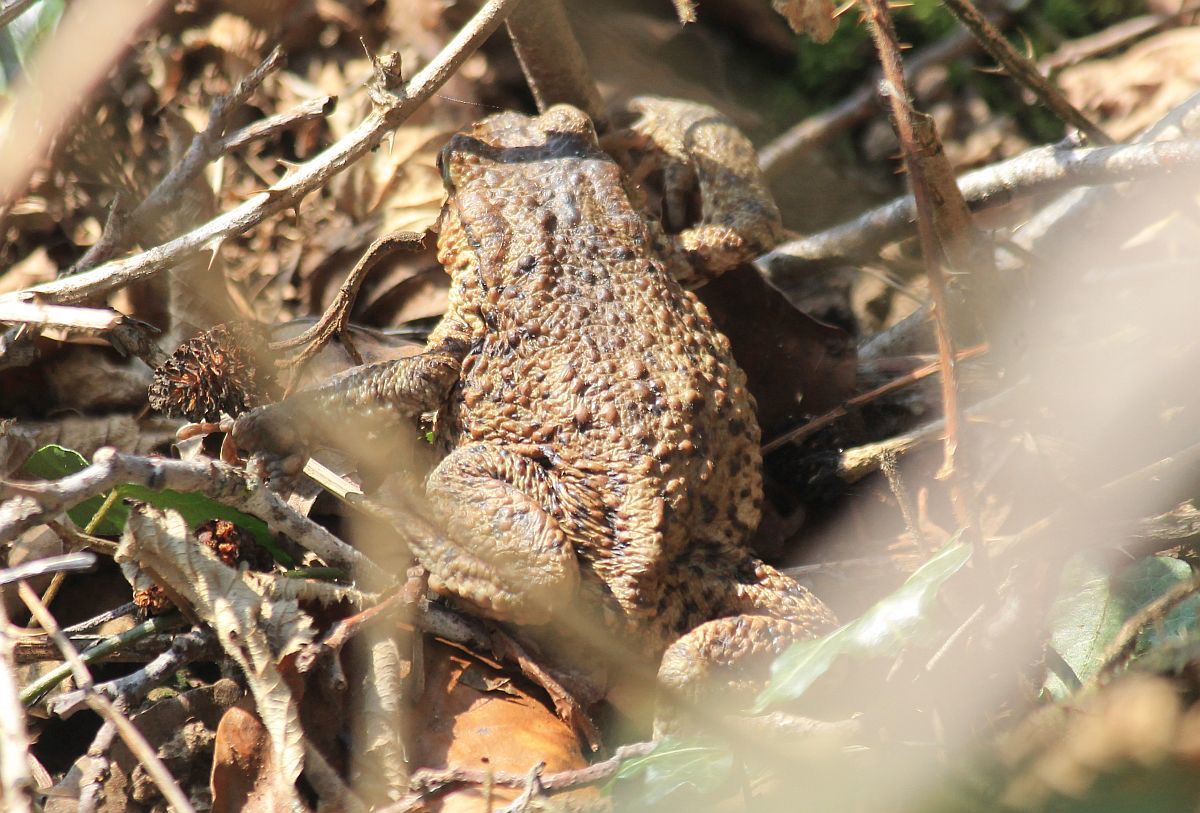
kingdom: Animalia
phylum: Chordata
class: Amphibia
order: Anura
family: Bufonidae
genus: Bufo
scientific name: Bufo bufo
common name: Common toad
